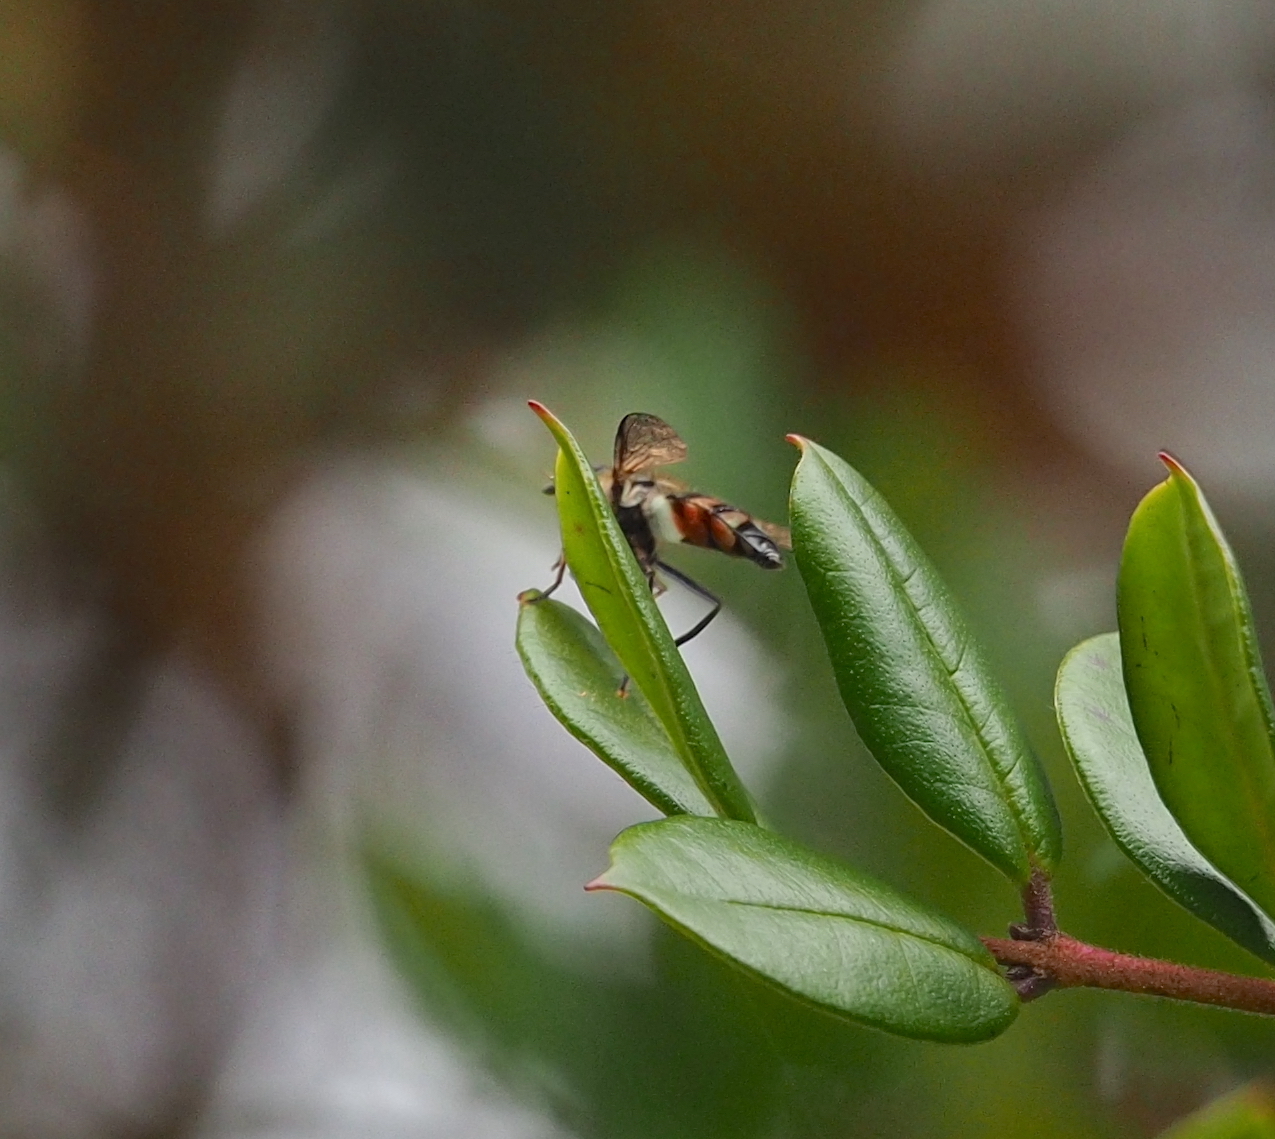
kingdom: Animalia
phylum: Arthropoda
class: Insecta
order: Diptera
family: Syrphidae
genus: Didea
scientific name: Didea fasciata
